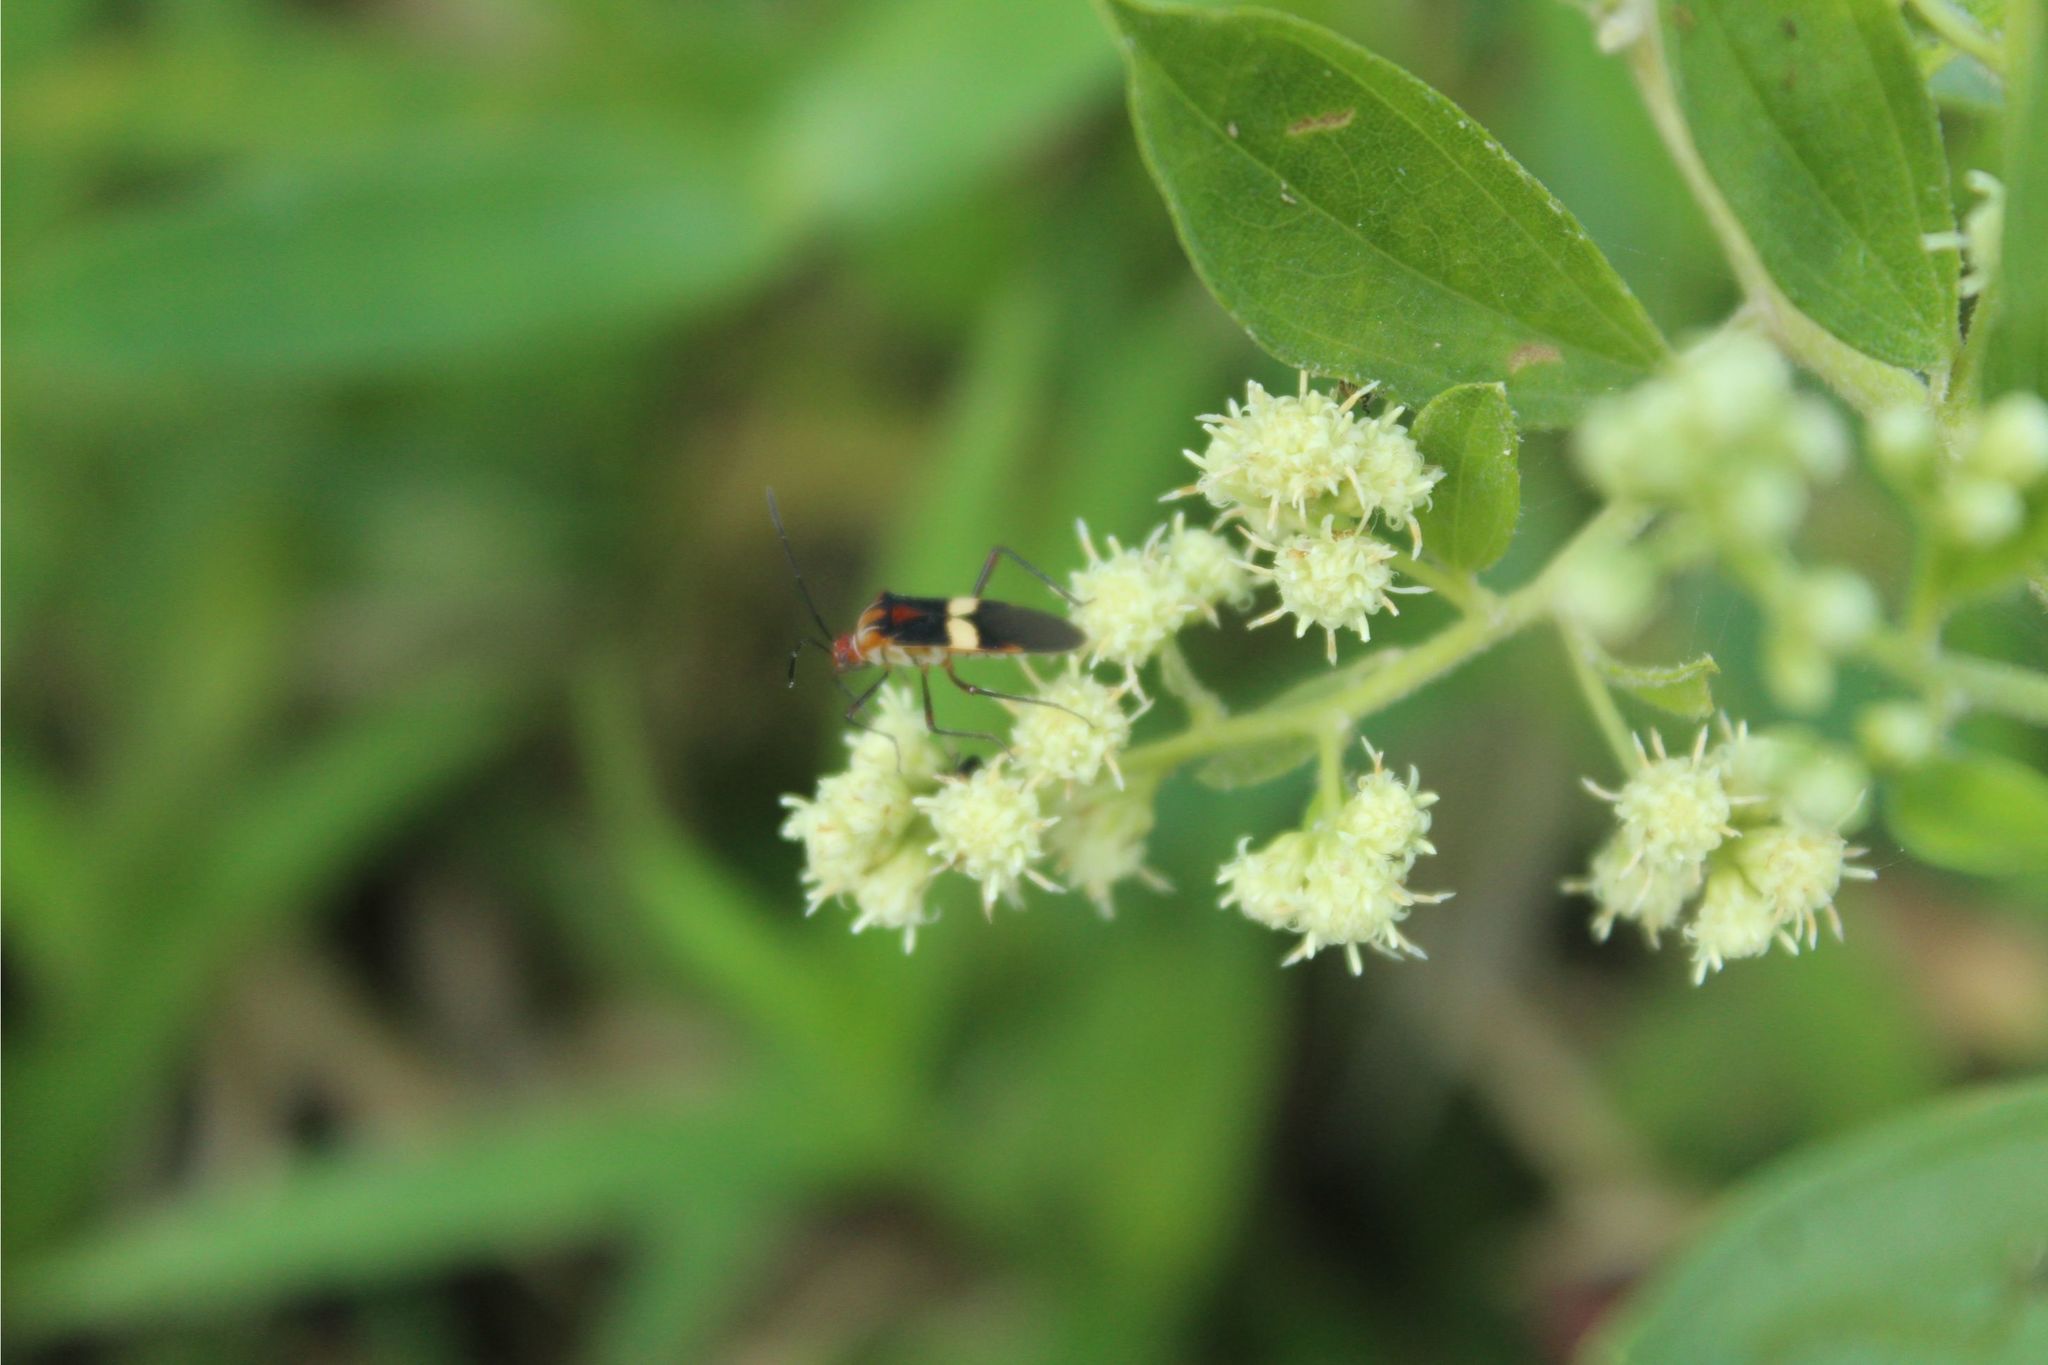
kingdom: Animalia
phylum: Arthropoda
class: Insecta
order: Hemiptera
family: Coreidae
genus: Hypselonotus
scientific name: Hypselonotus interruptus
